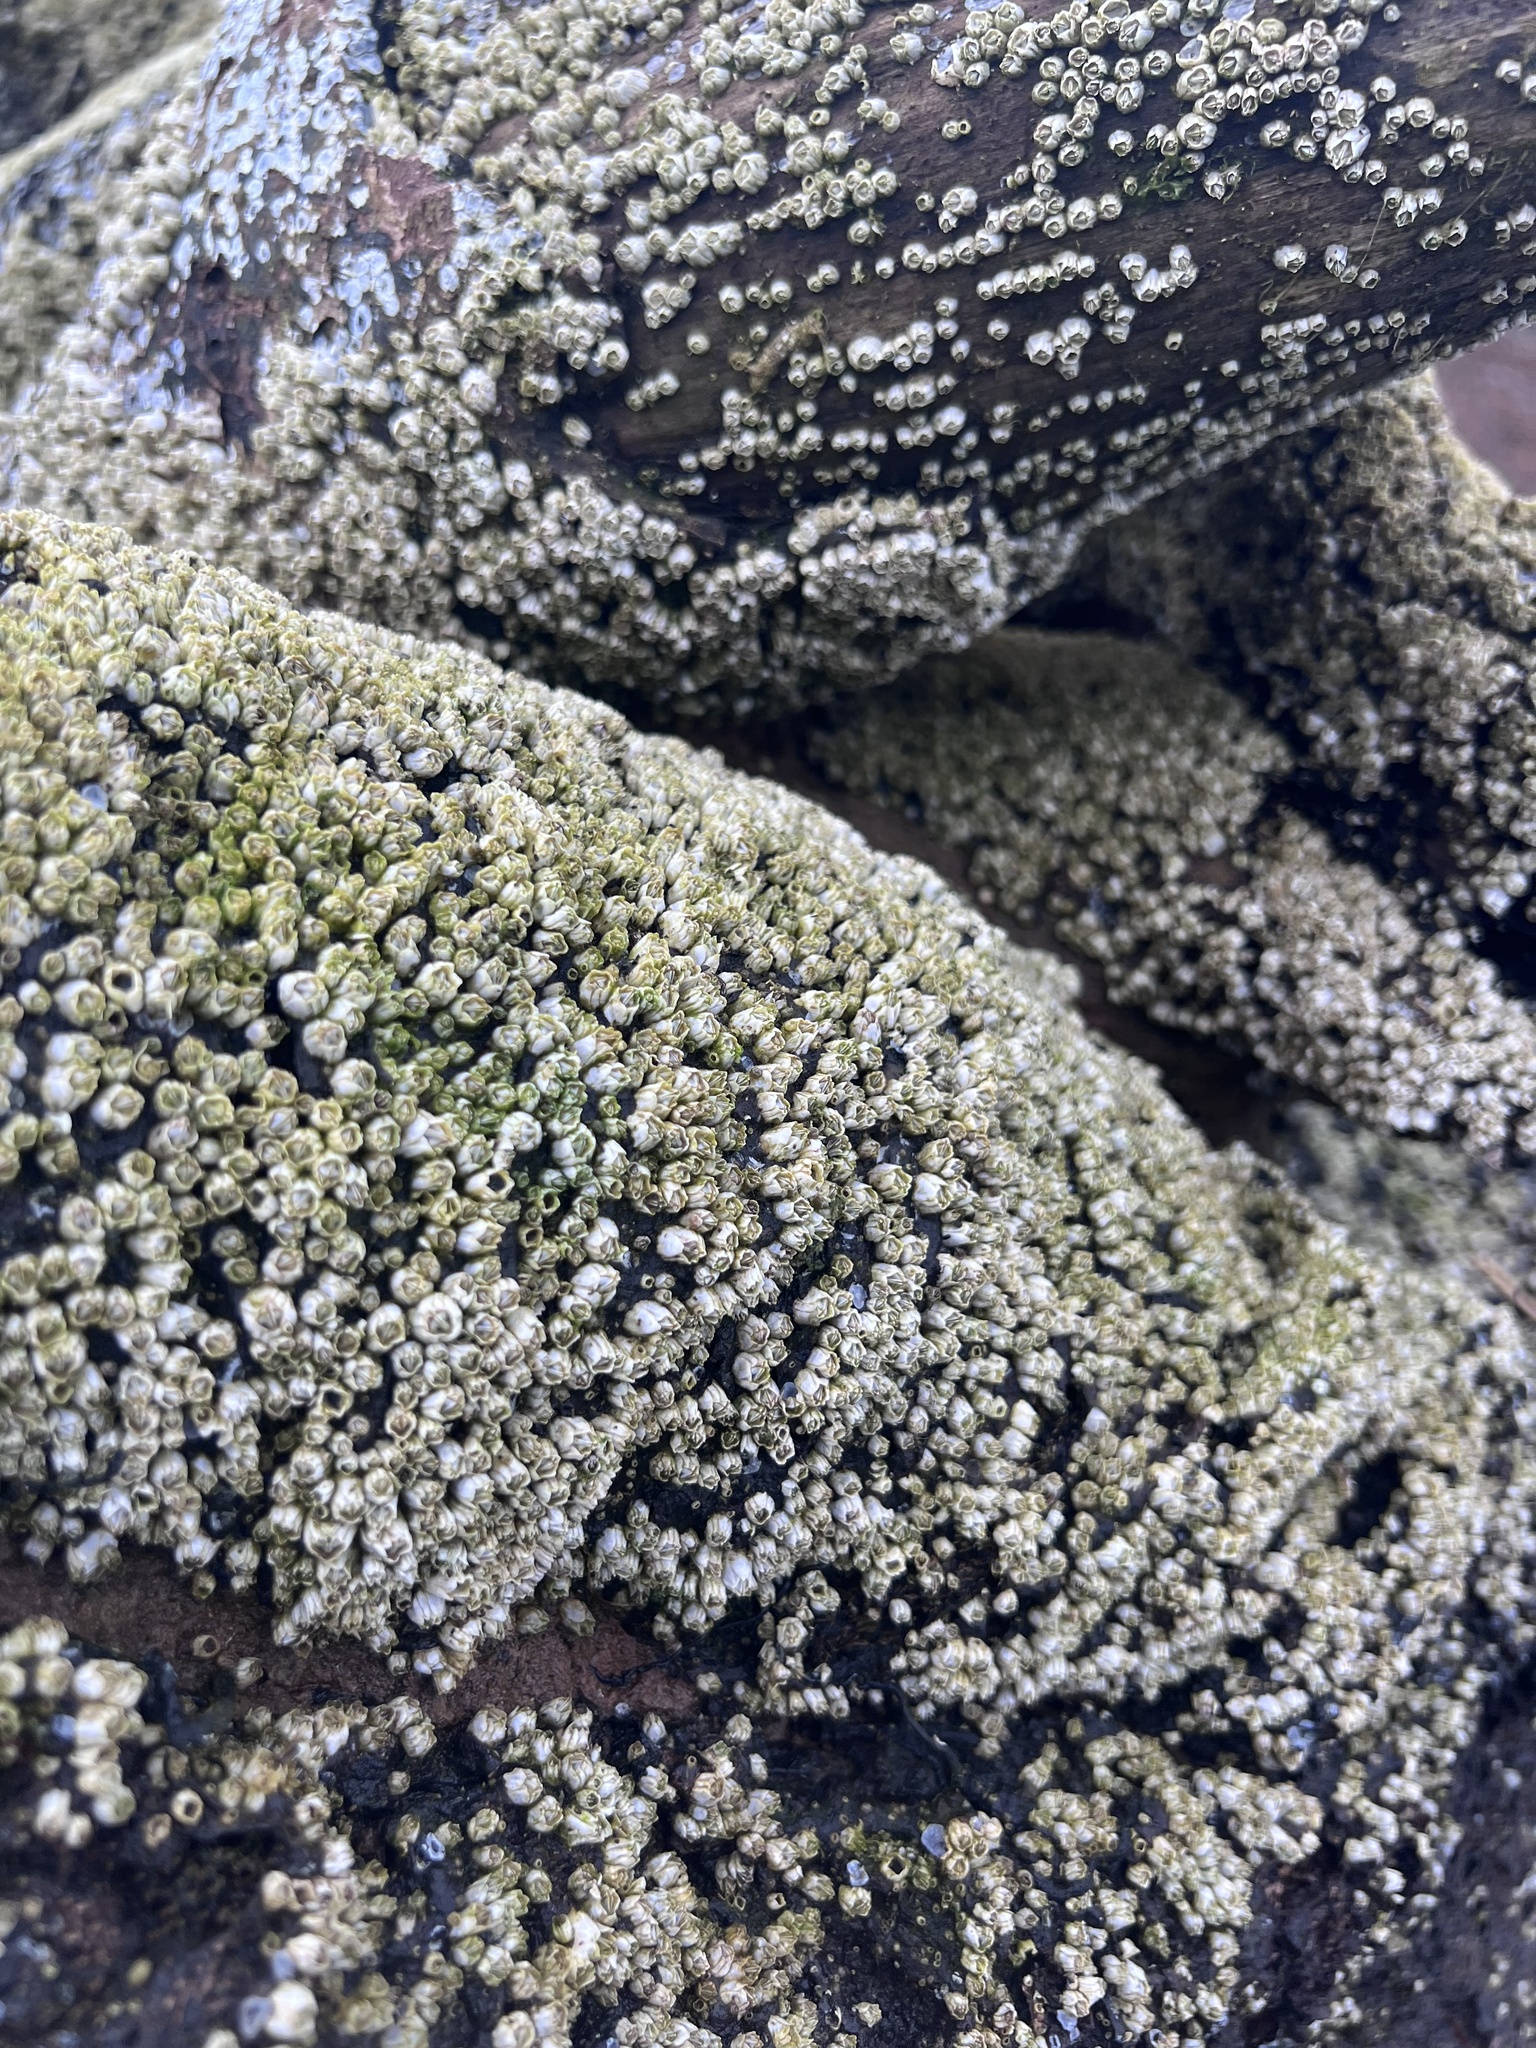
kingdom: Animalia
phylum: Arthropoda
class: Maxillopoda
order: Sessilia
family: Balanidae
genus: Balanus
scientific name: Balanus glandula
